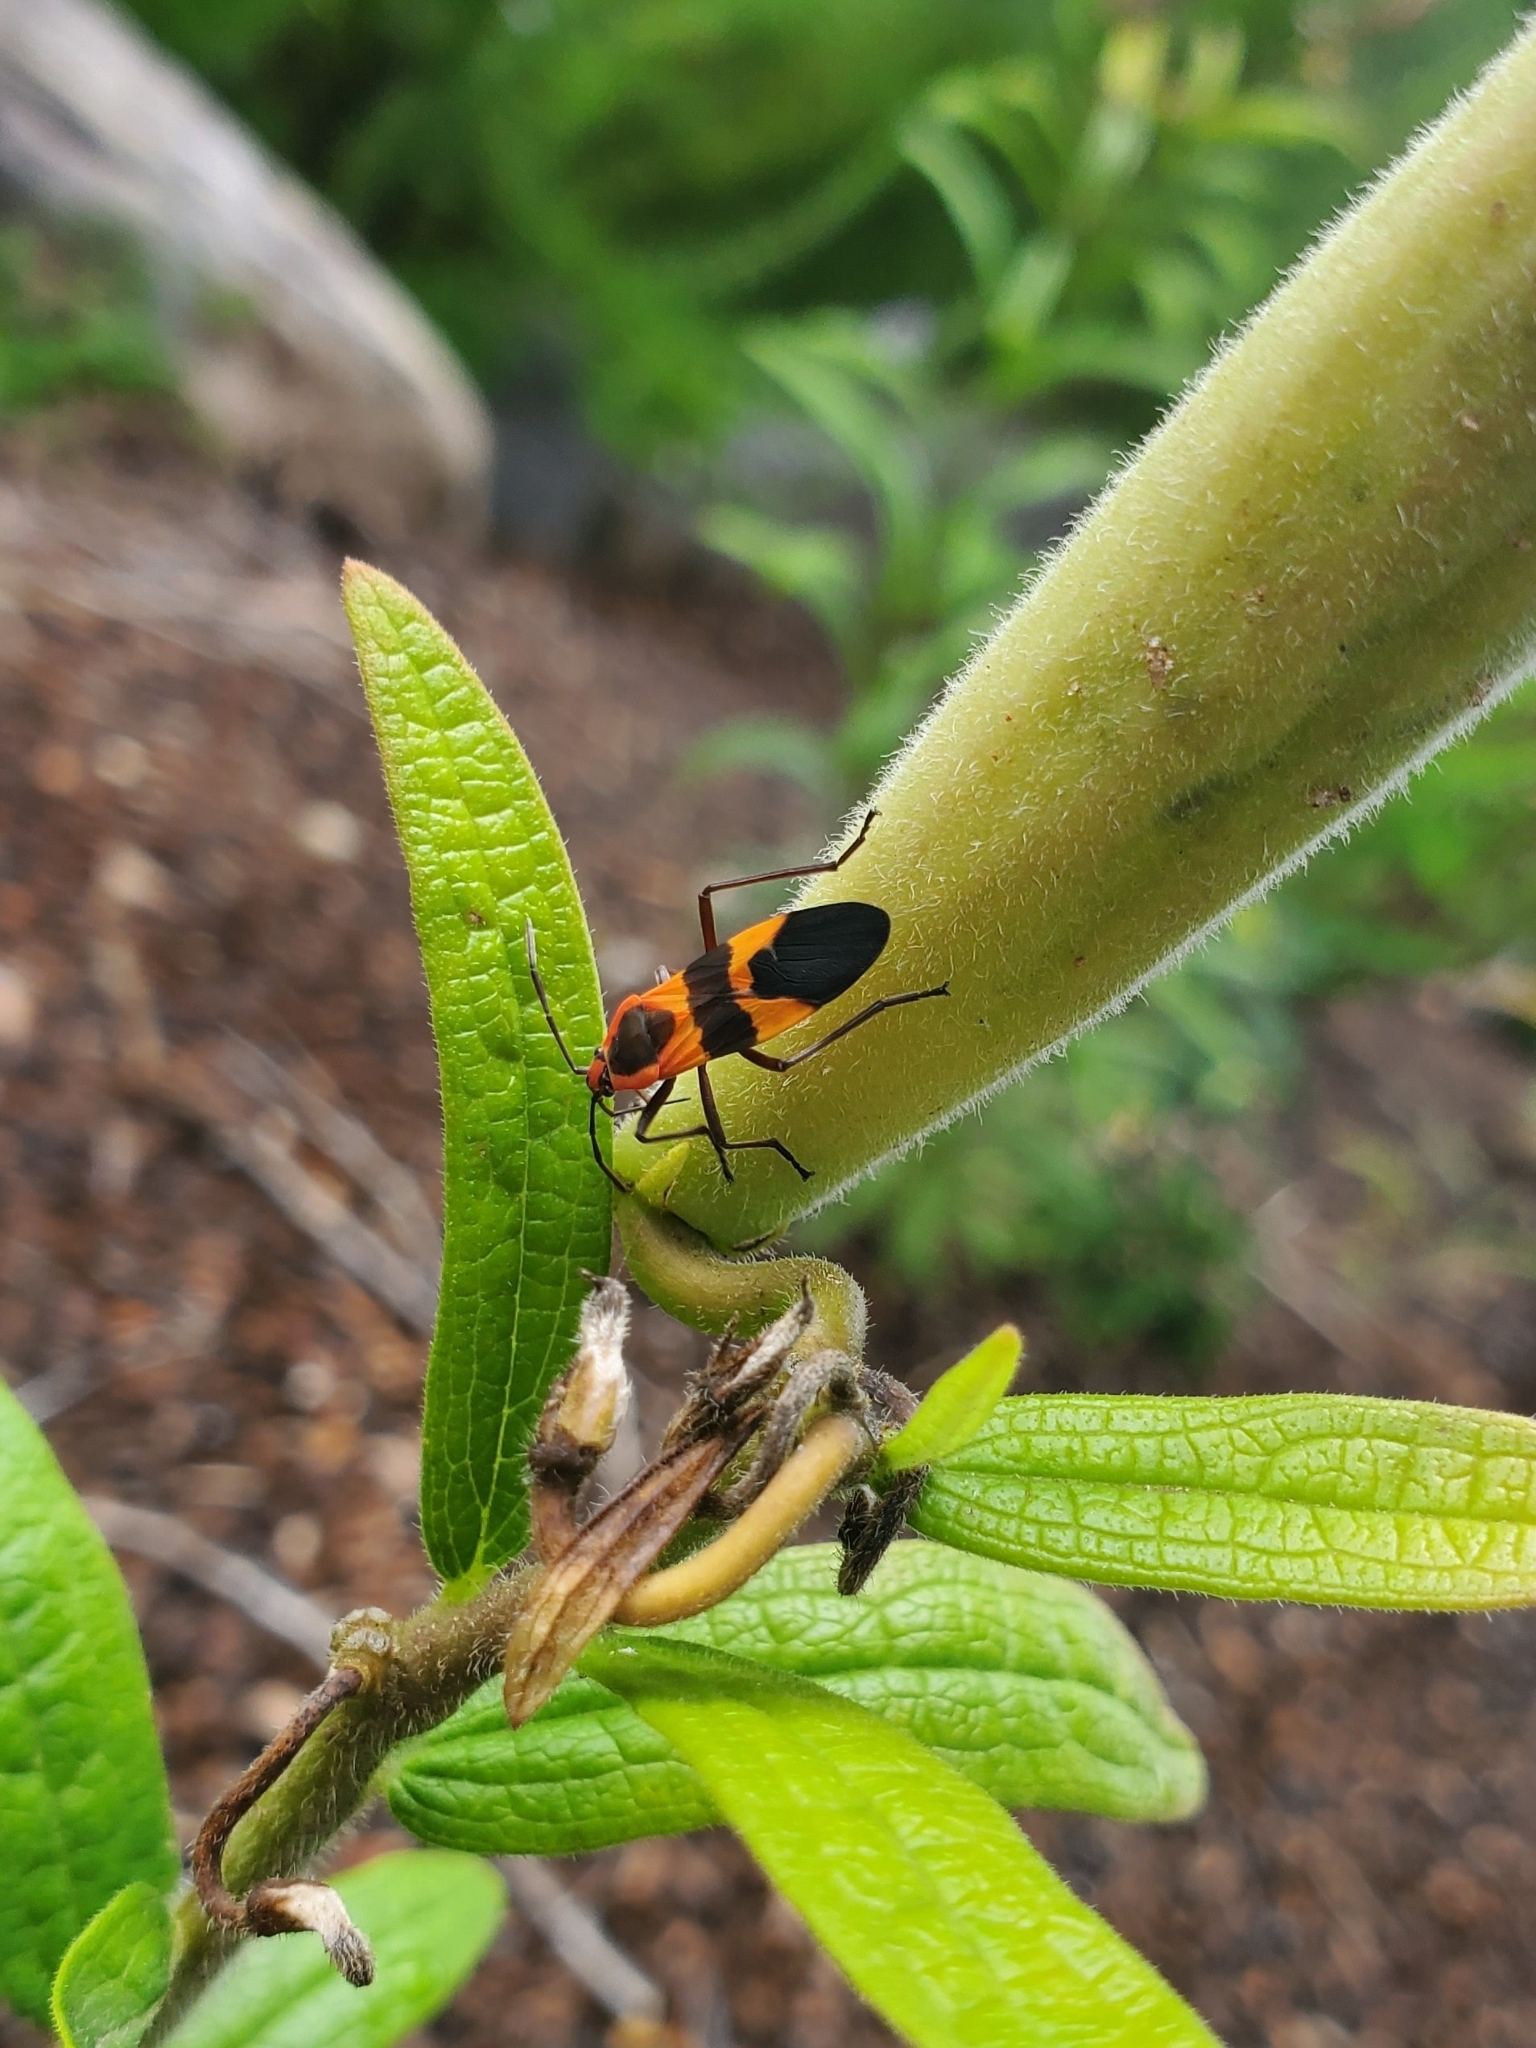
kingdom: Animalia
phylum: Arthropoda
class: Insecta
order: Hemiptera
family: Lygaeidae
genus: Oncopeltus
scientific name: Oncopeltus fasciatus
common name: Large milkweed bug
